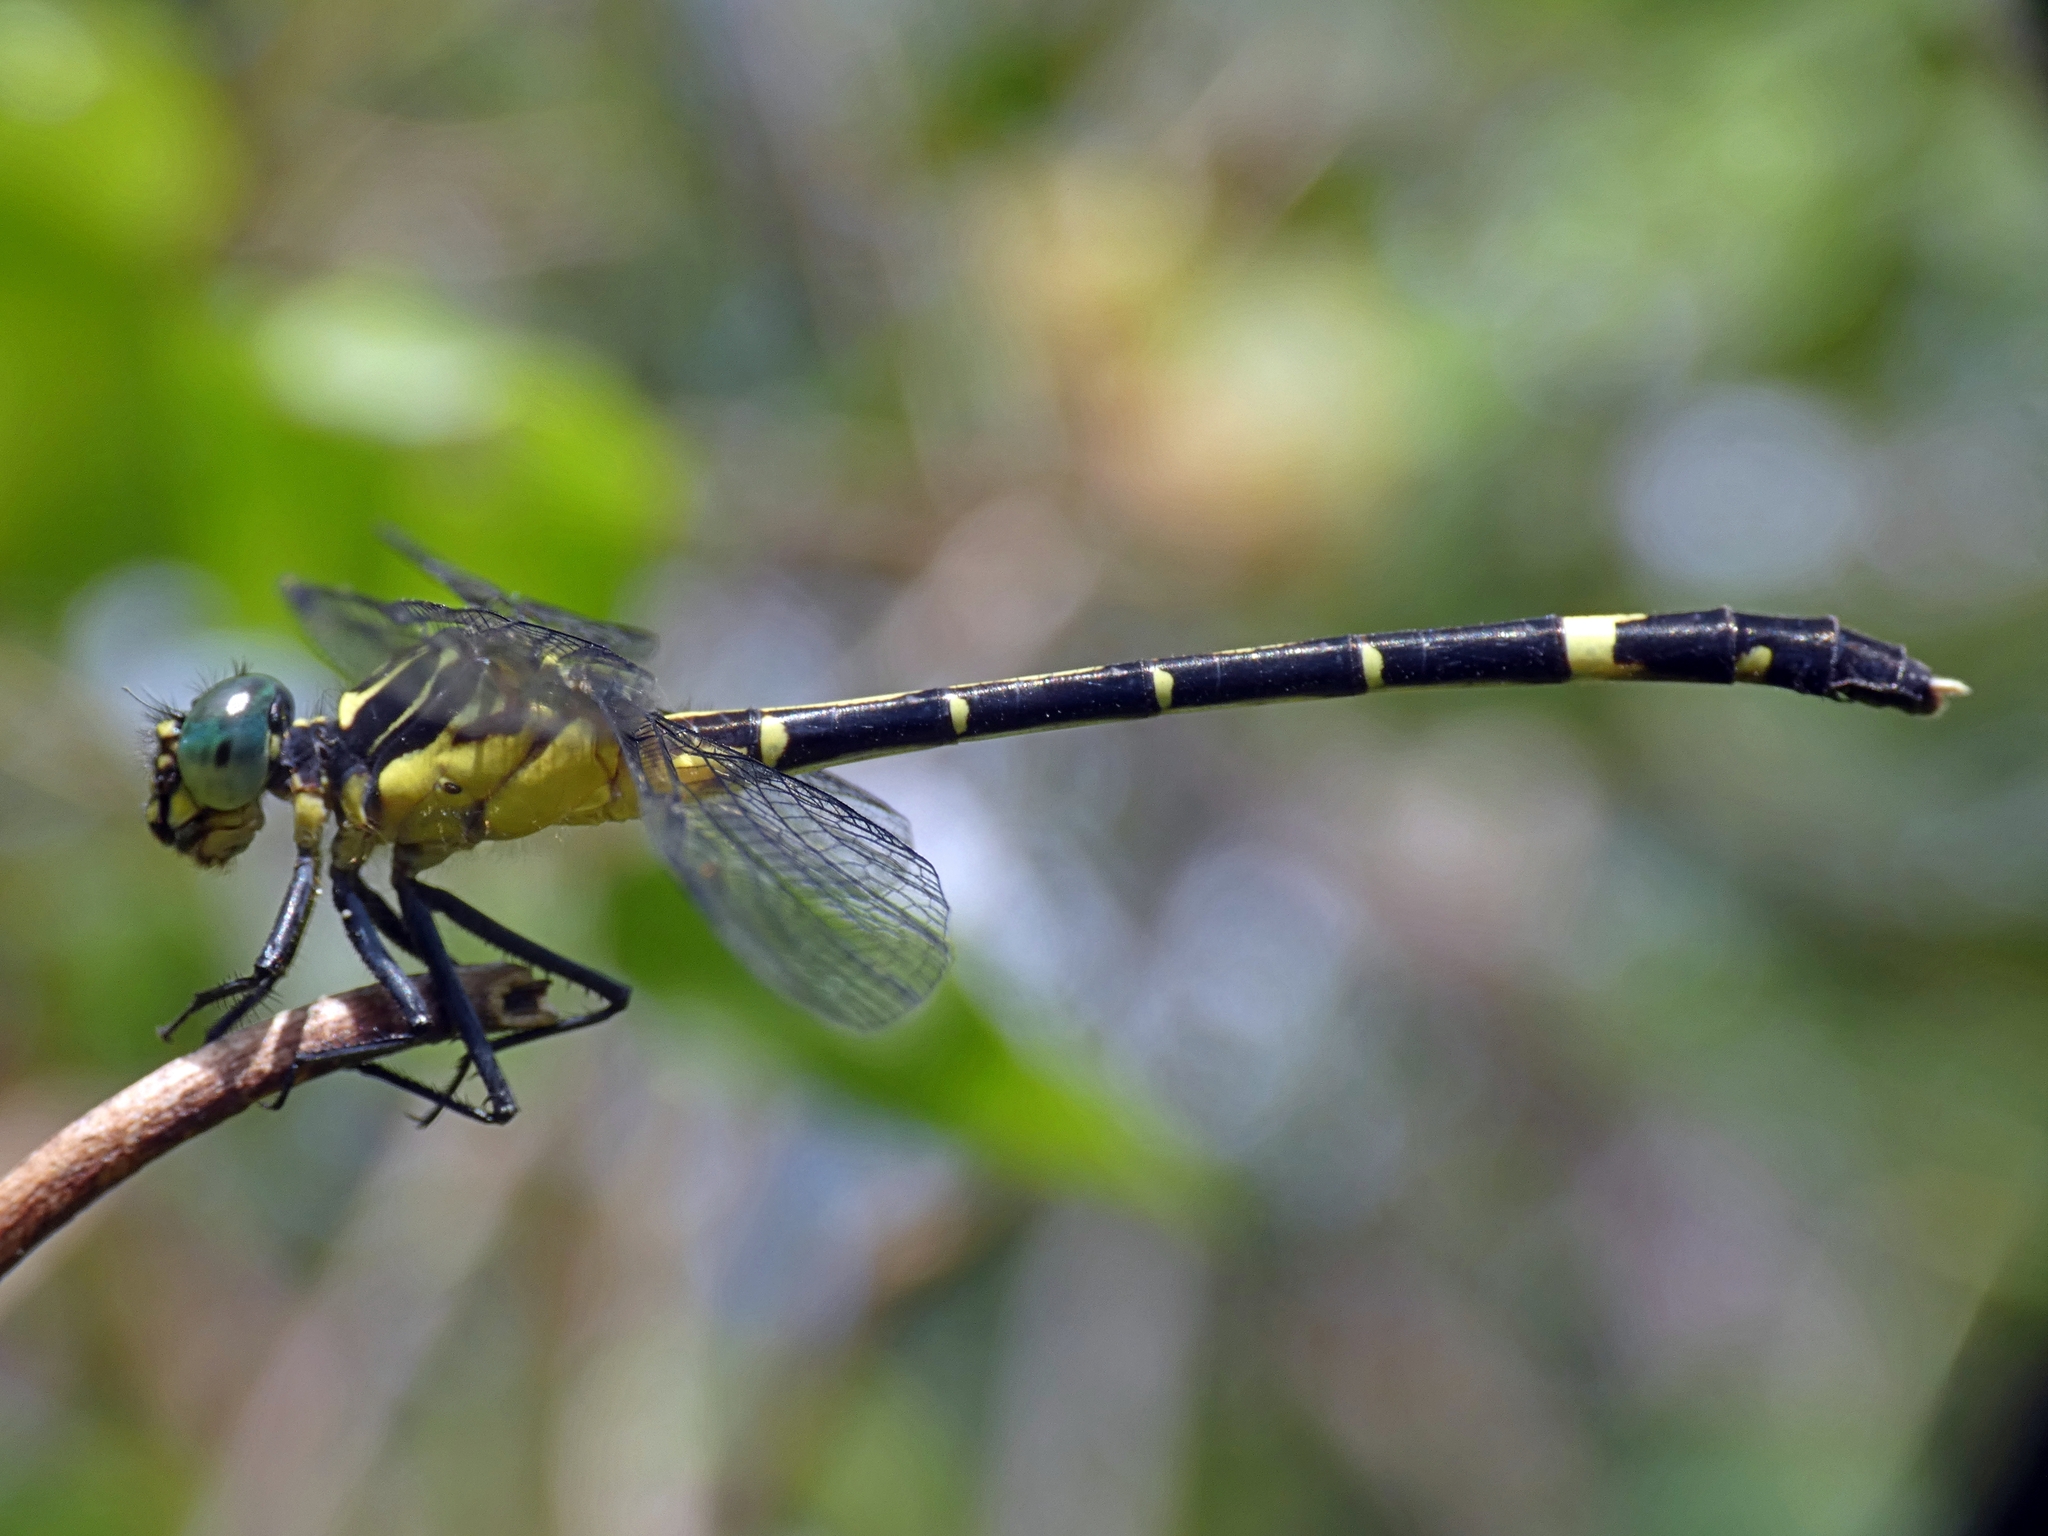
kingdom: Animalia
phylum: Arthropoda
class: Insecta
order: Odonata
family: Gomphidae
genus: Austrogomphus
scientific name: Austrogomphus prasinus
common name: Lemon-tipped hunter
